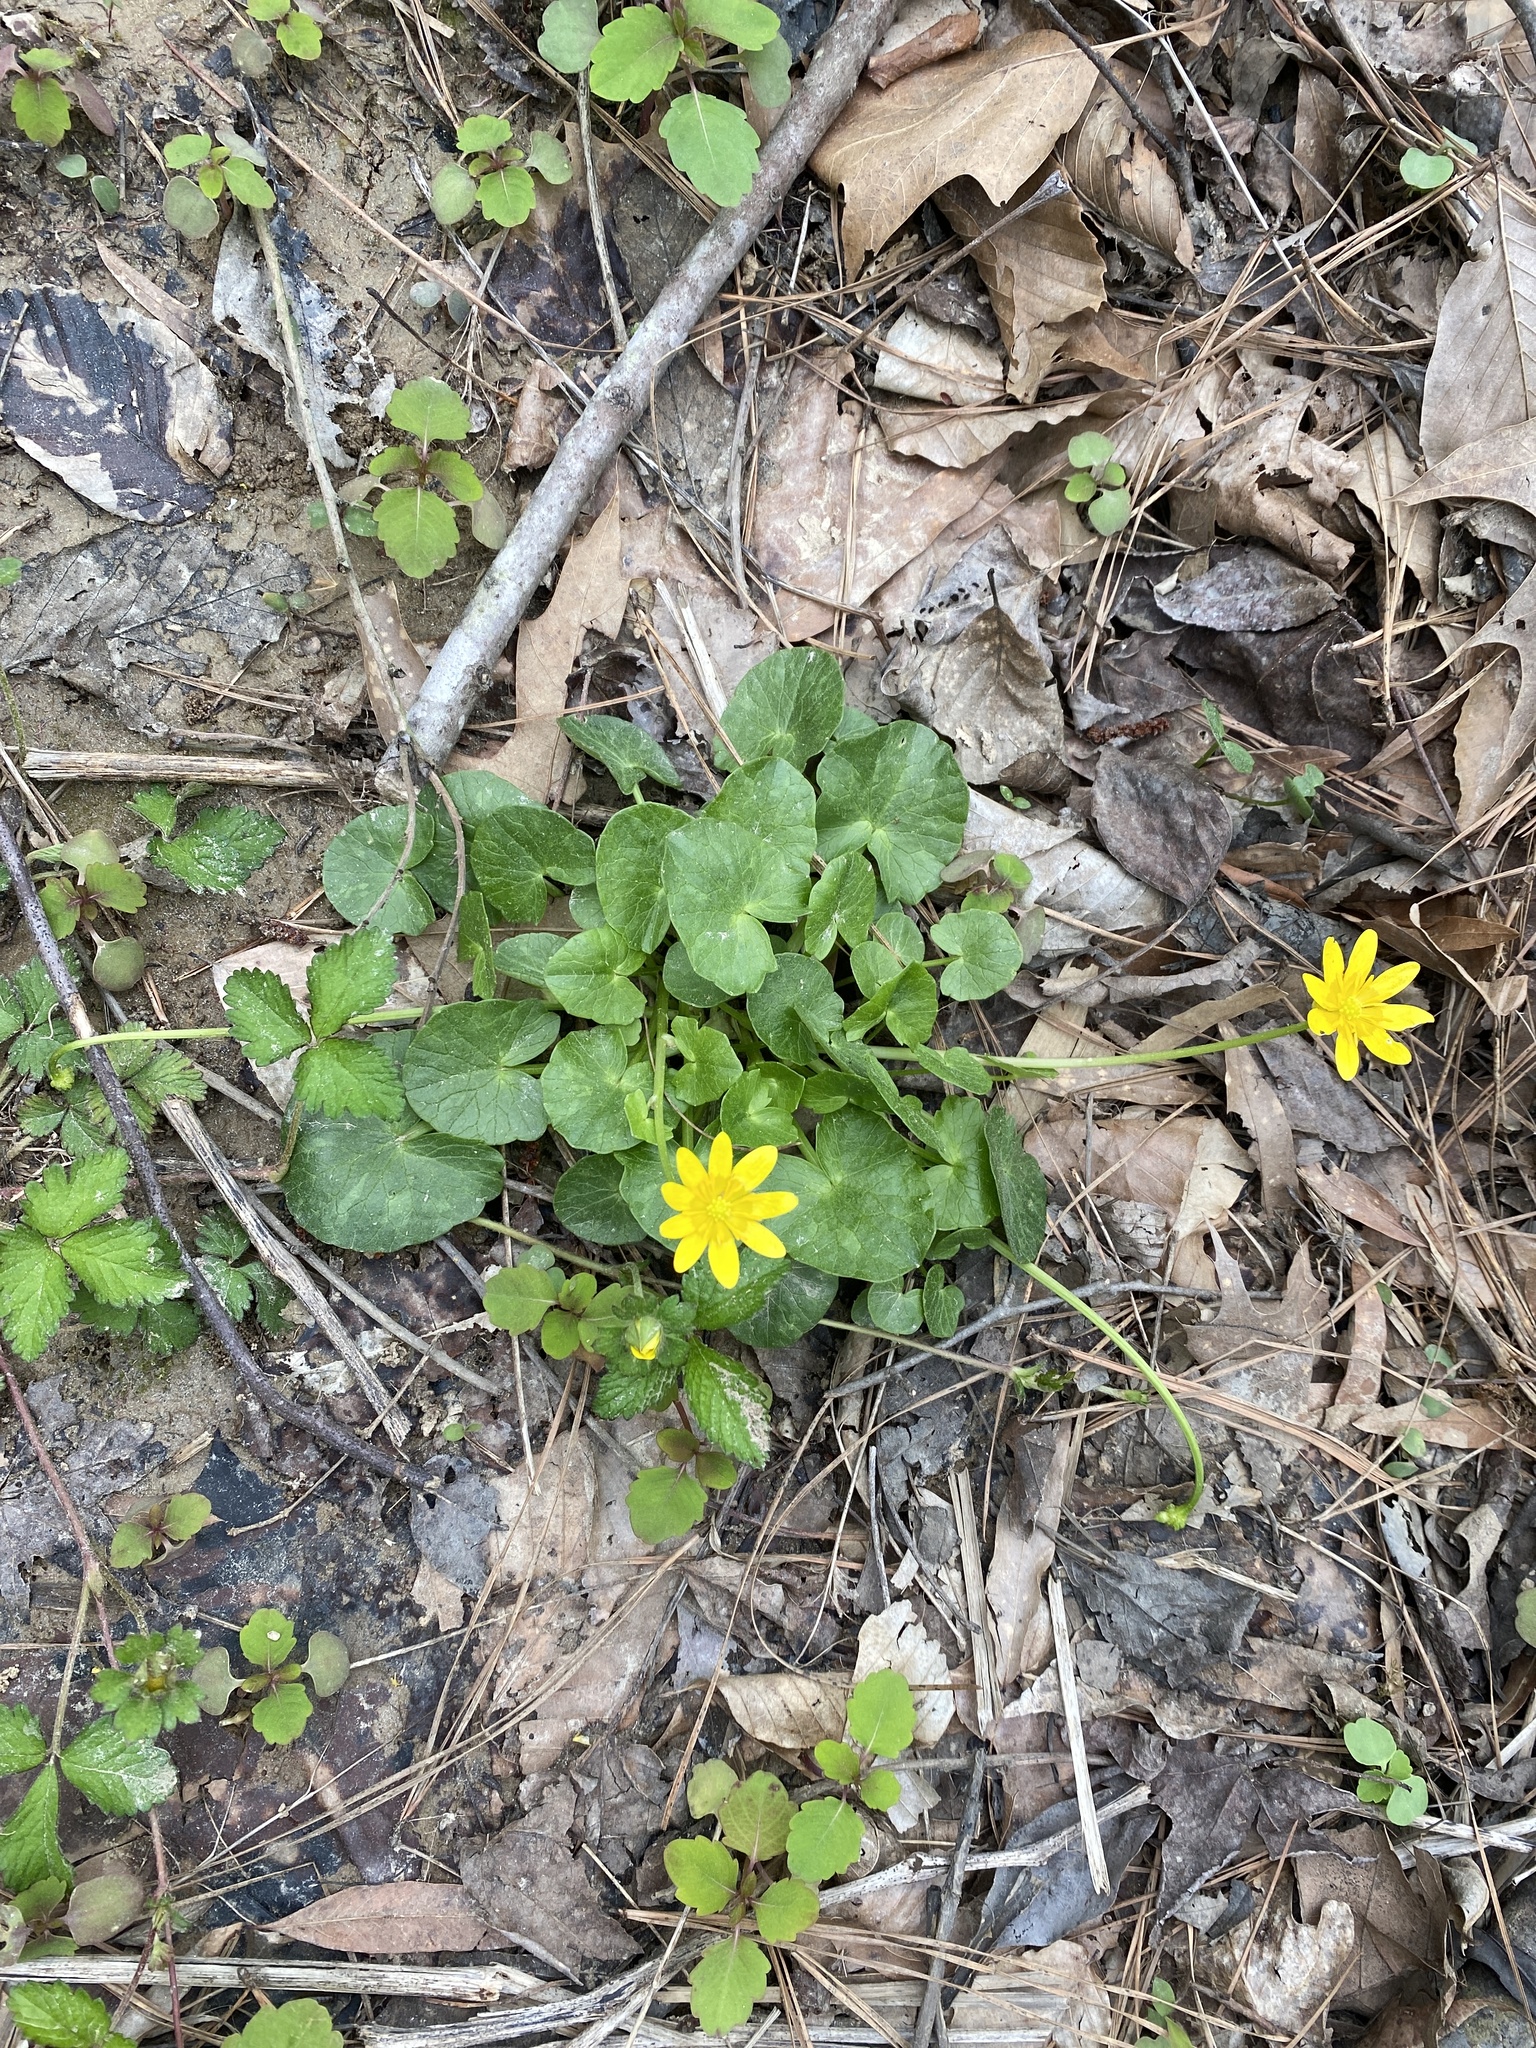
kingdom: Plantae
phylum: Tracheophyta
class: Magnoliopsida
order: Ranunculales
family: Ranunculaceae
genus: Ficaria
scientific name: Ficaria verna
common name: Lesser celandine
